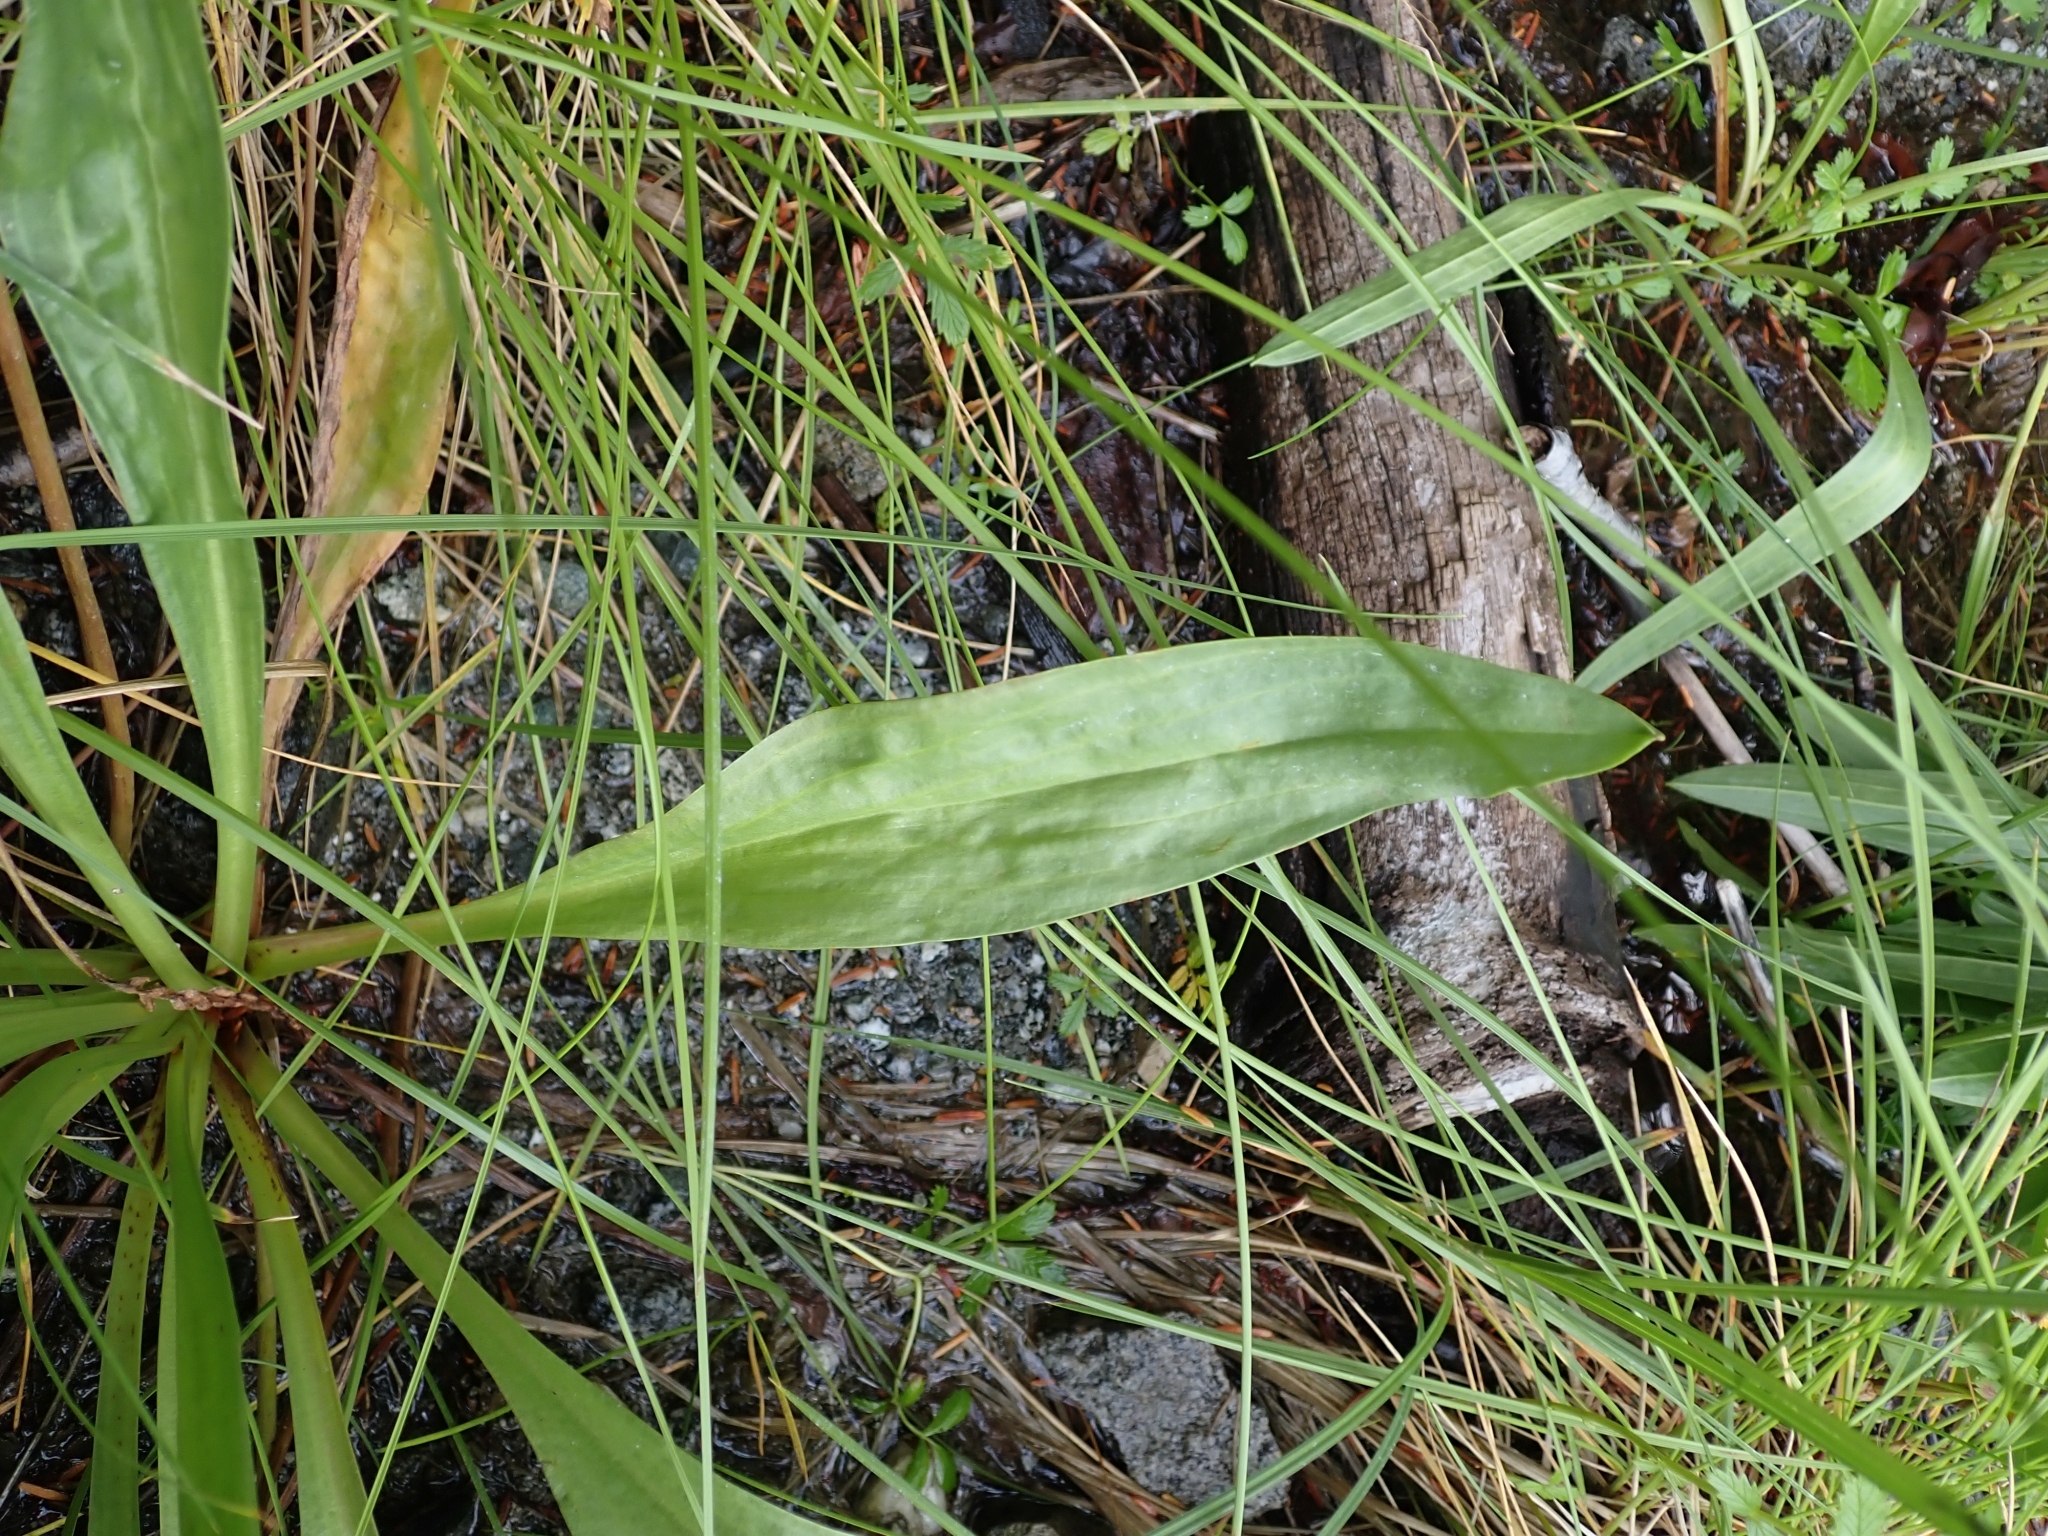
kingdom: Plantae
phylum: Tracheophyta
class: Magnoliopsida
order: Lamiales
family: Plantaginaceae
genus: Plantago
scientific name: Plantago macrocarpa
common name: Alaska plantain
